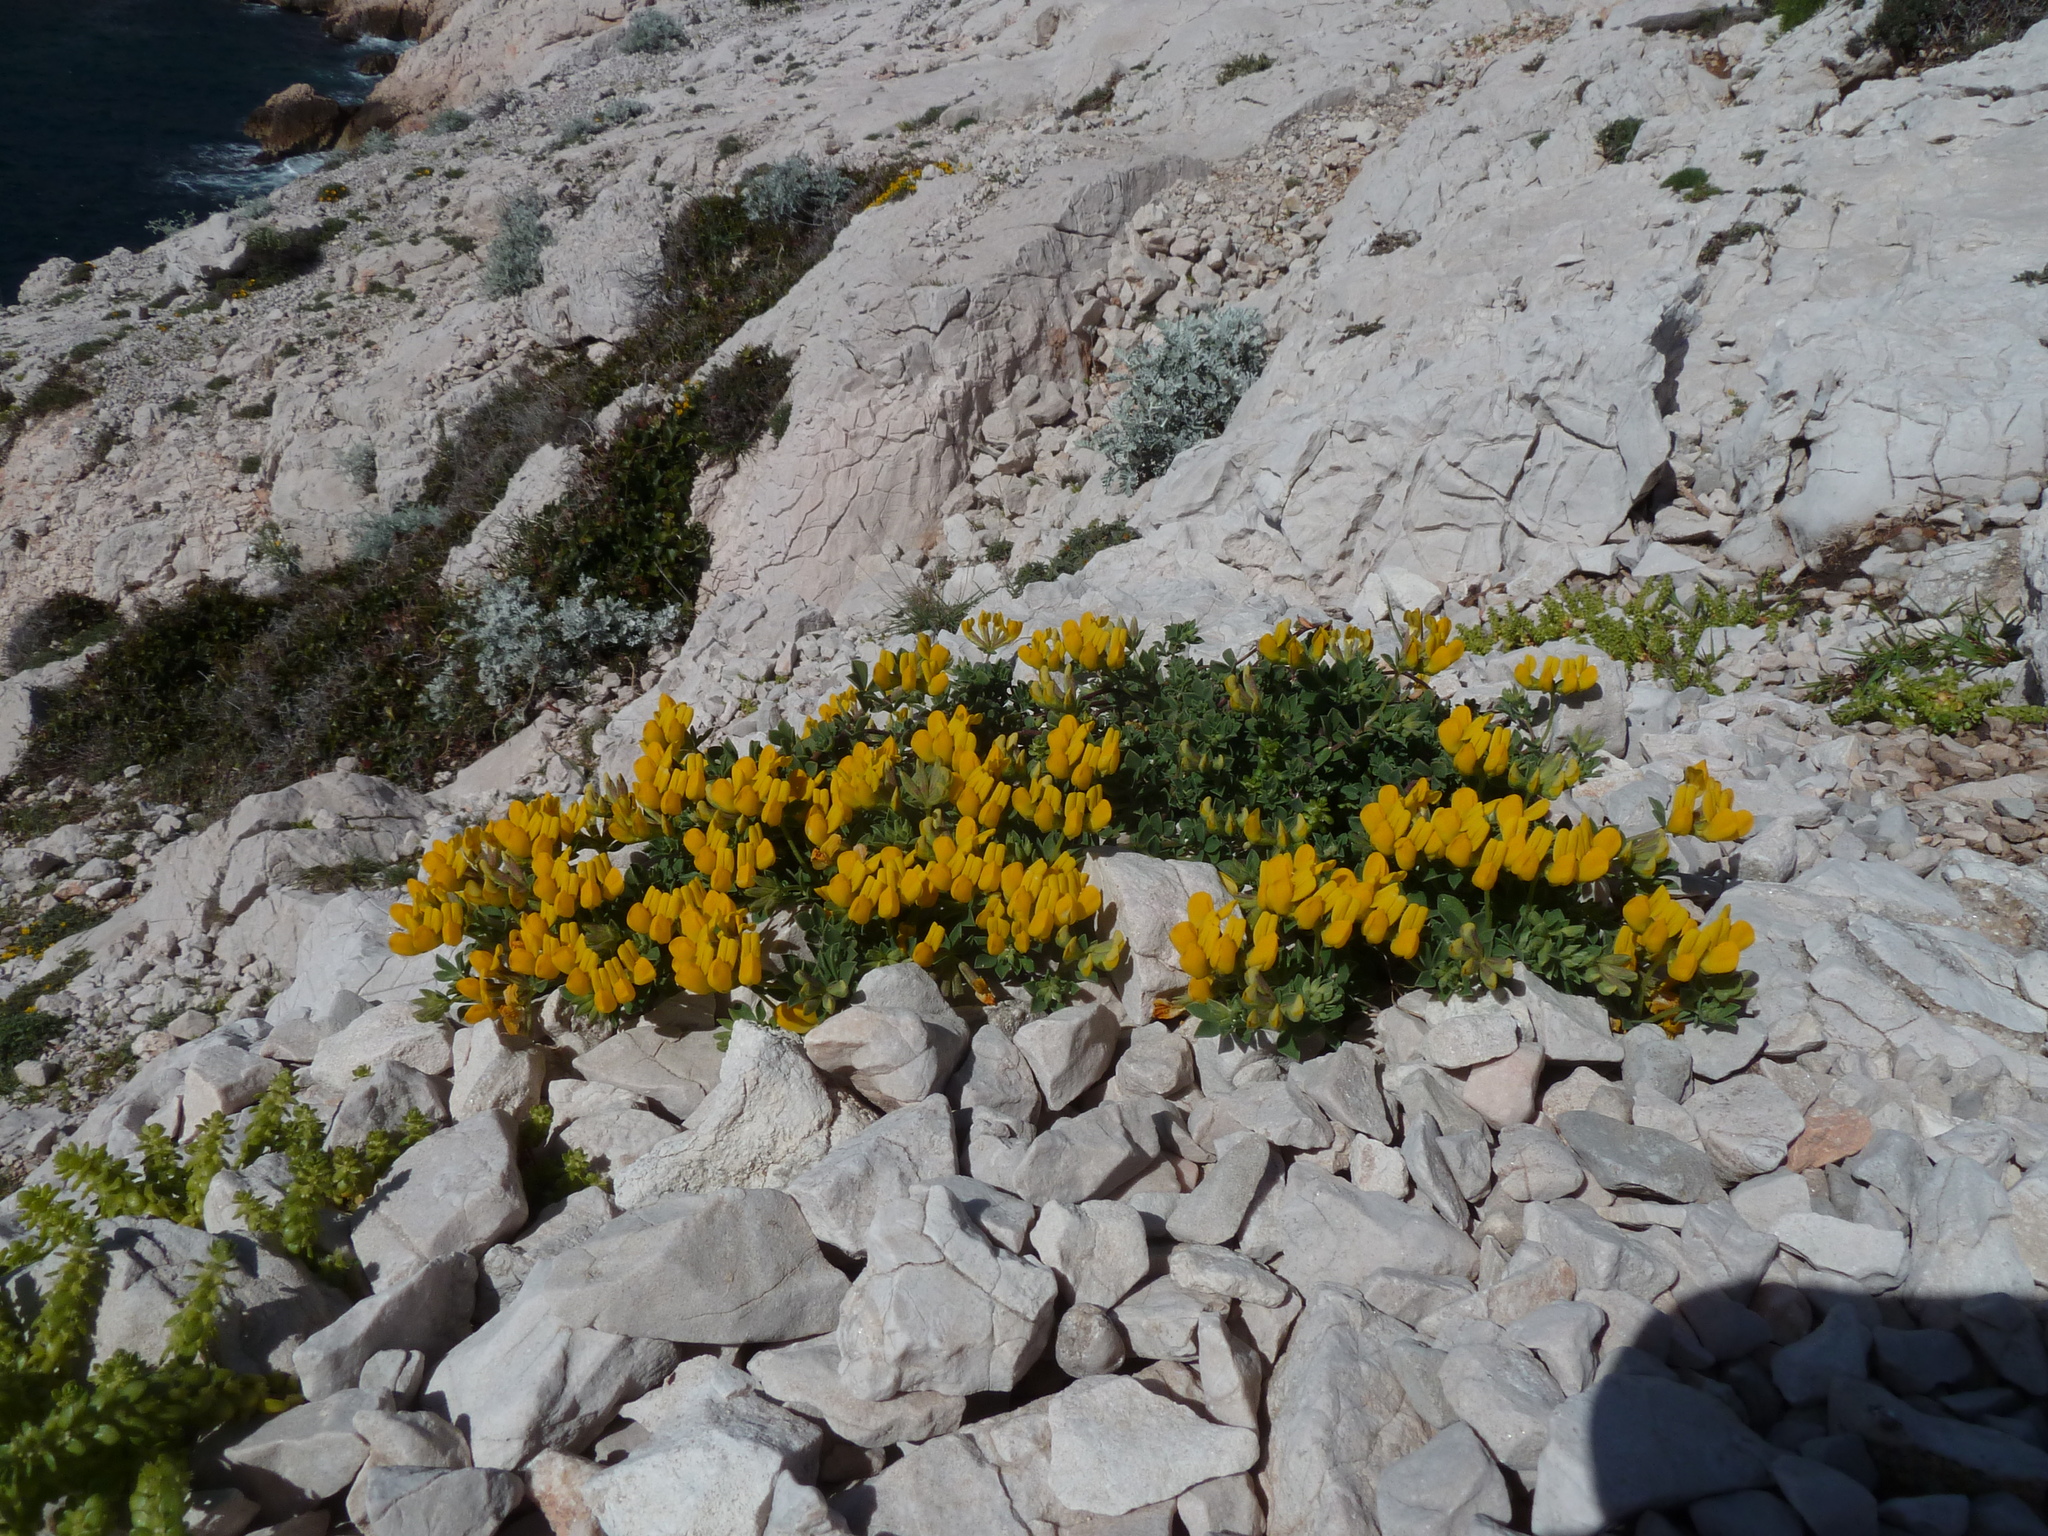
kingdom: Plantae
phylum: Tracheophyta
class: Magnoliopsida
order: Fabales
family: Fabaceae
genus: Lotus
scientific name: Lotus drepanocarpus
